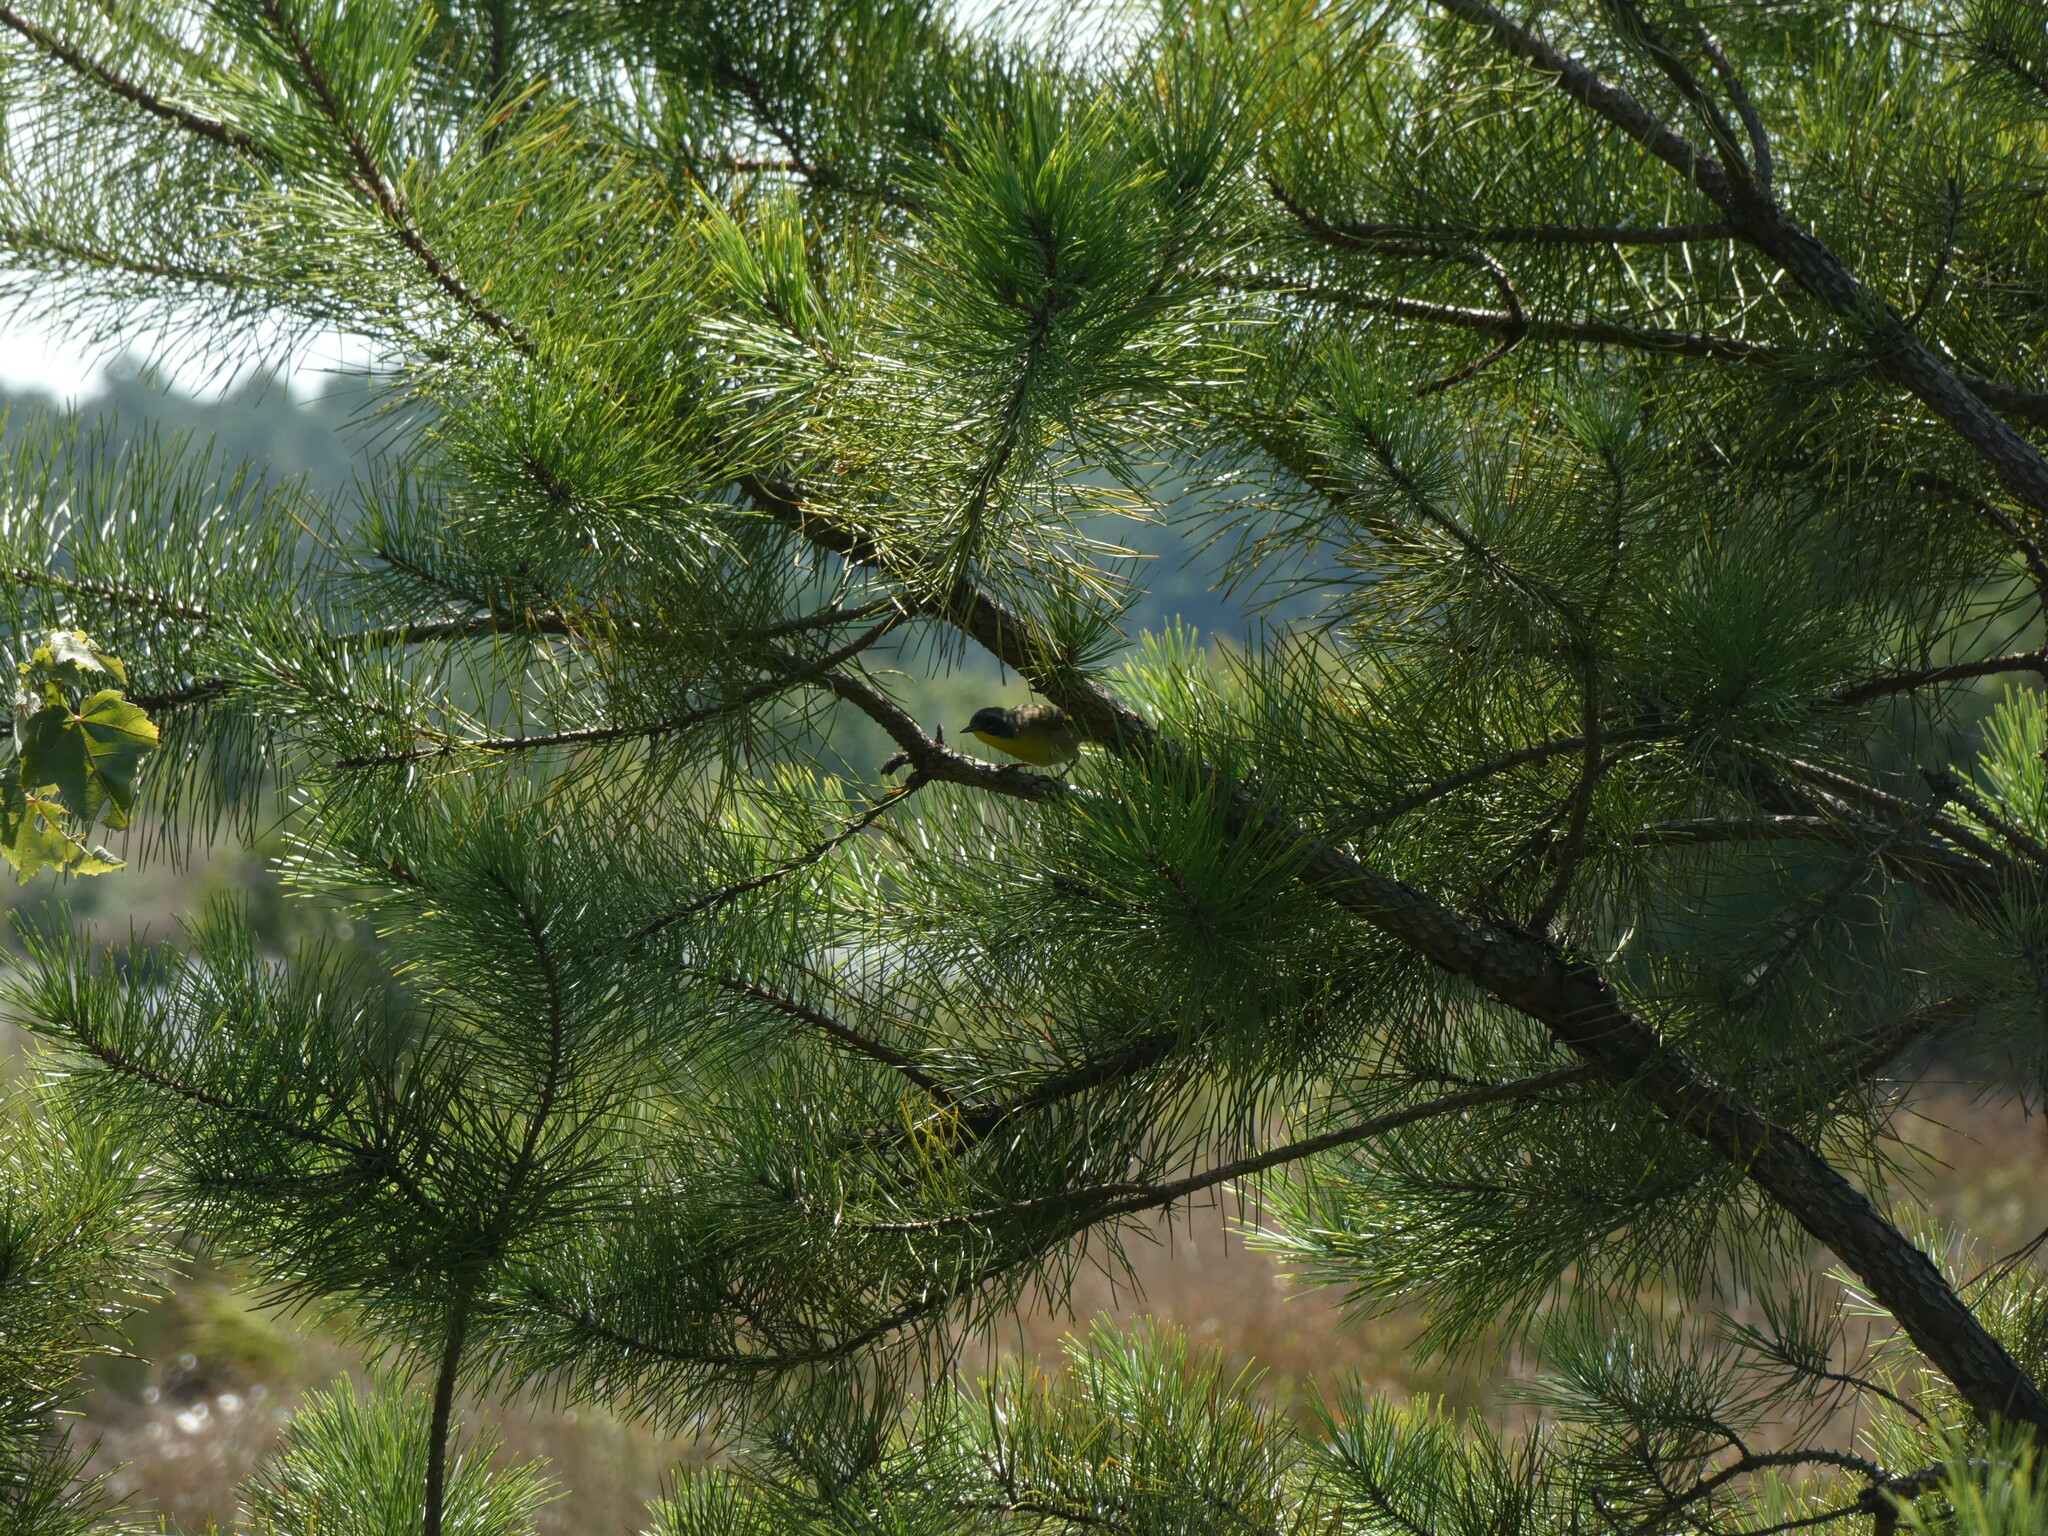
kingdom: Animalia
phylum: Chordata
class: Aves
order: Passeriformes
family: Parulidae
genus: Geothlypis
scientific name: Geothlypis trichas
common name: Common yellowthroat
